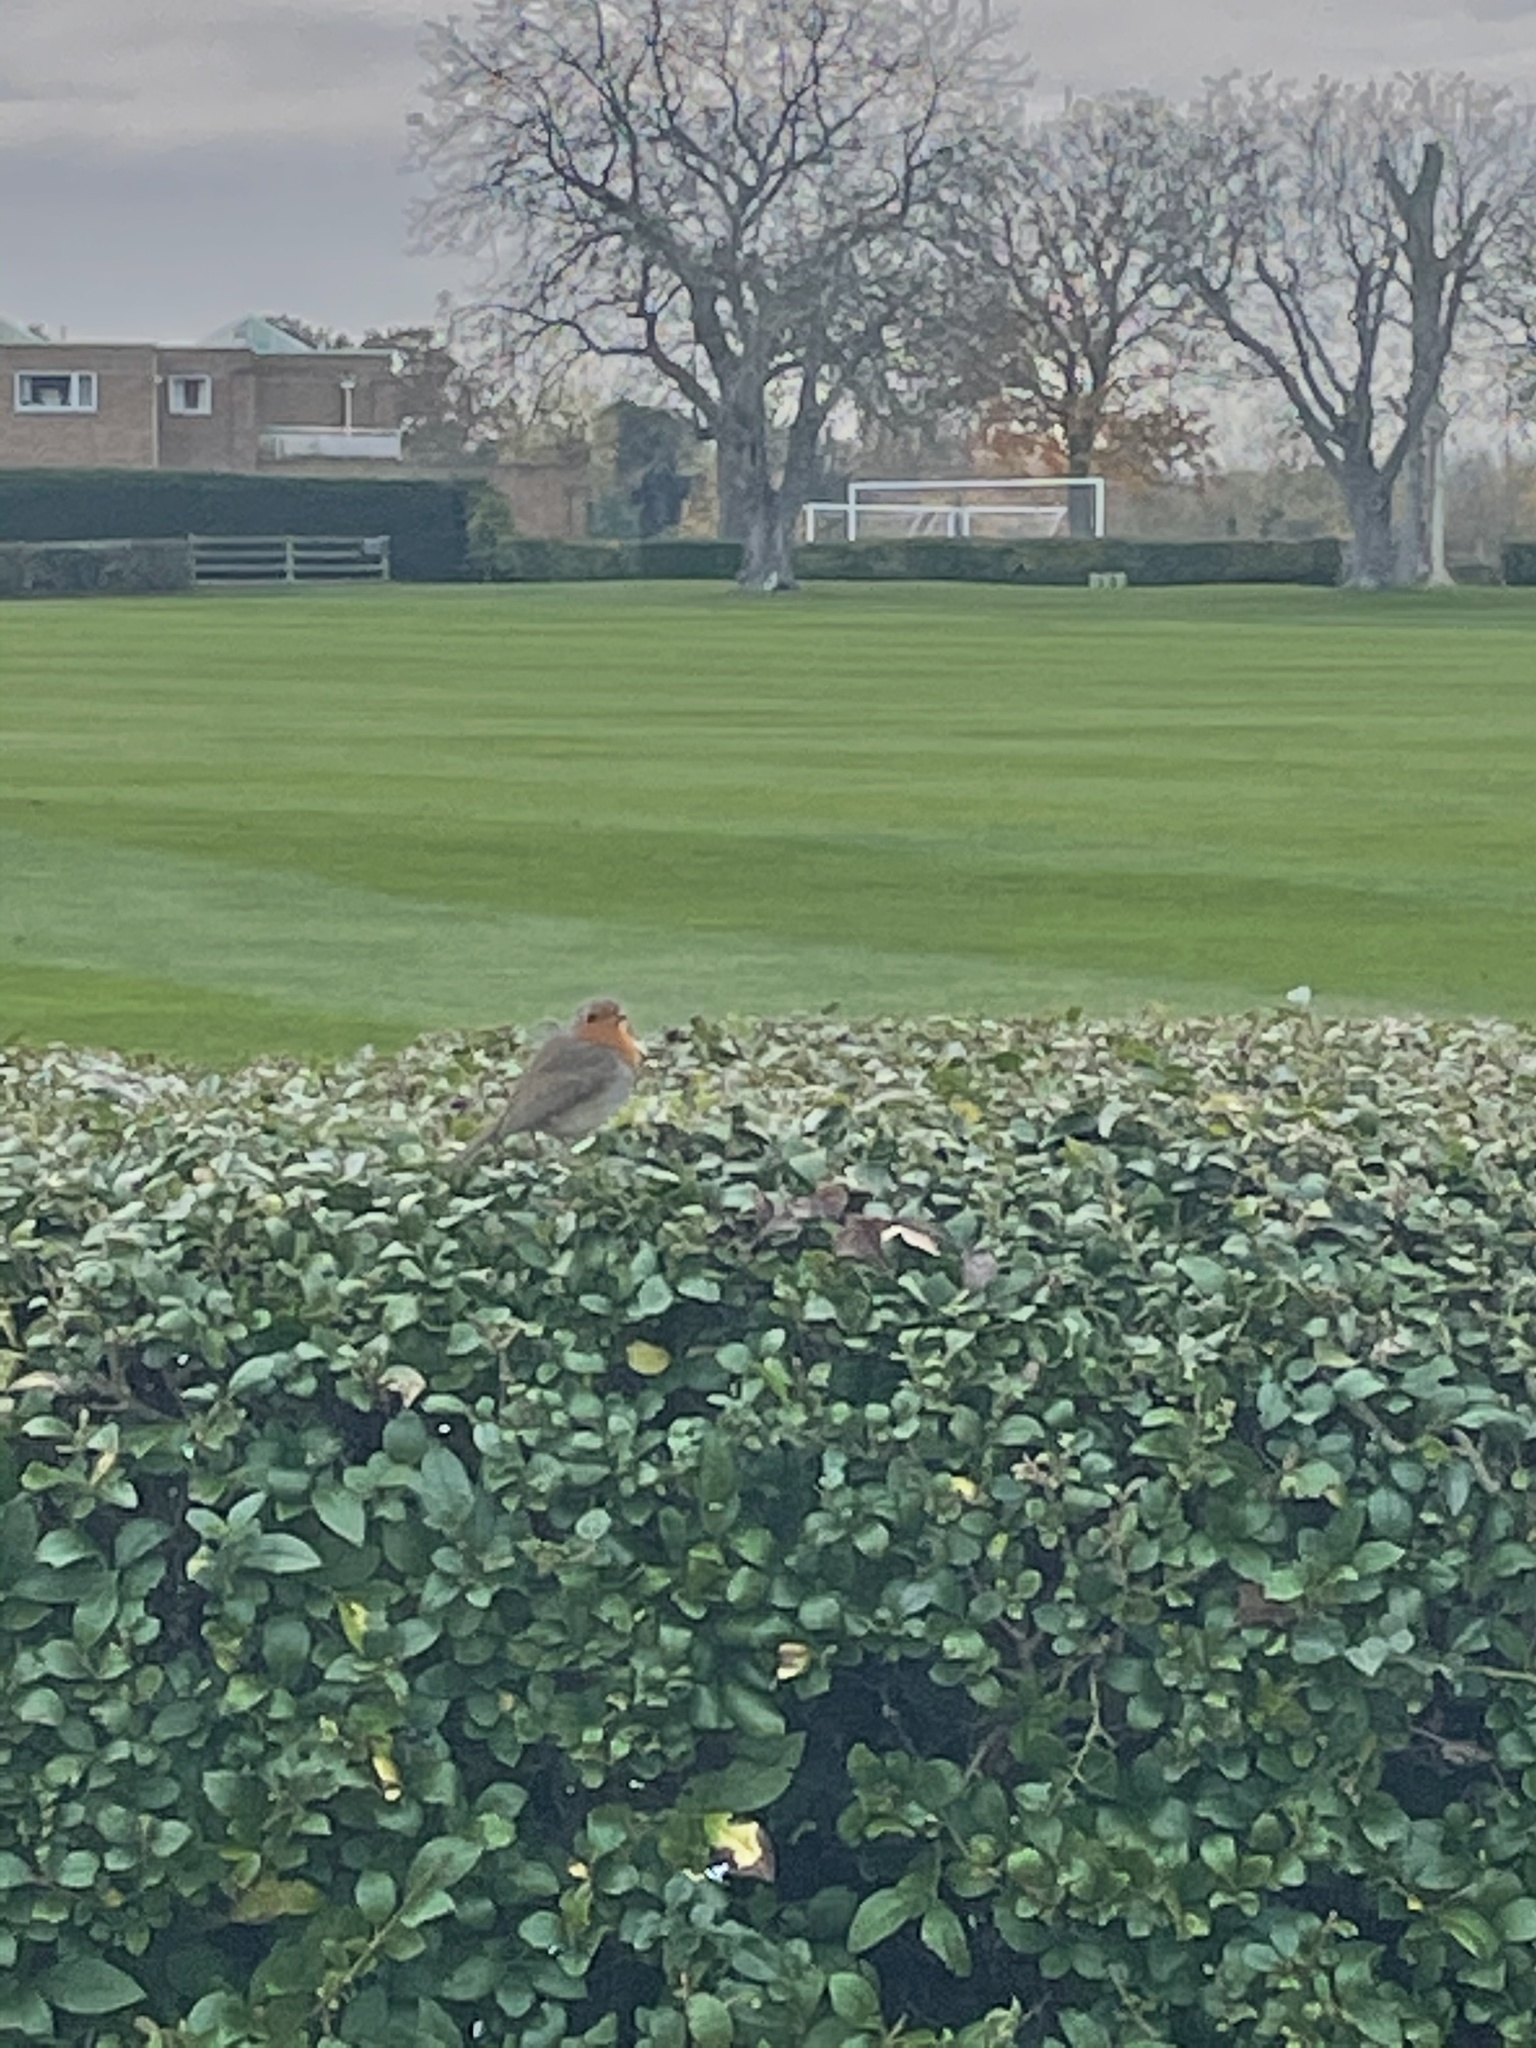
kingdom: Animalia
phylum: Chordata
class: Aves
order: Passeriformes
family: Muscicapidae
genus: Erithacus
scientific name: Erithacus rubecula
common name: European robin
